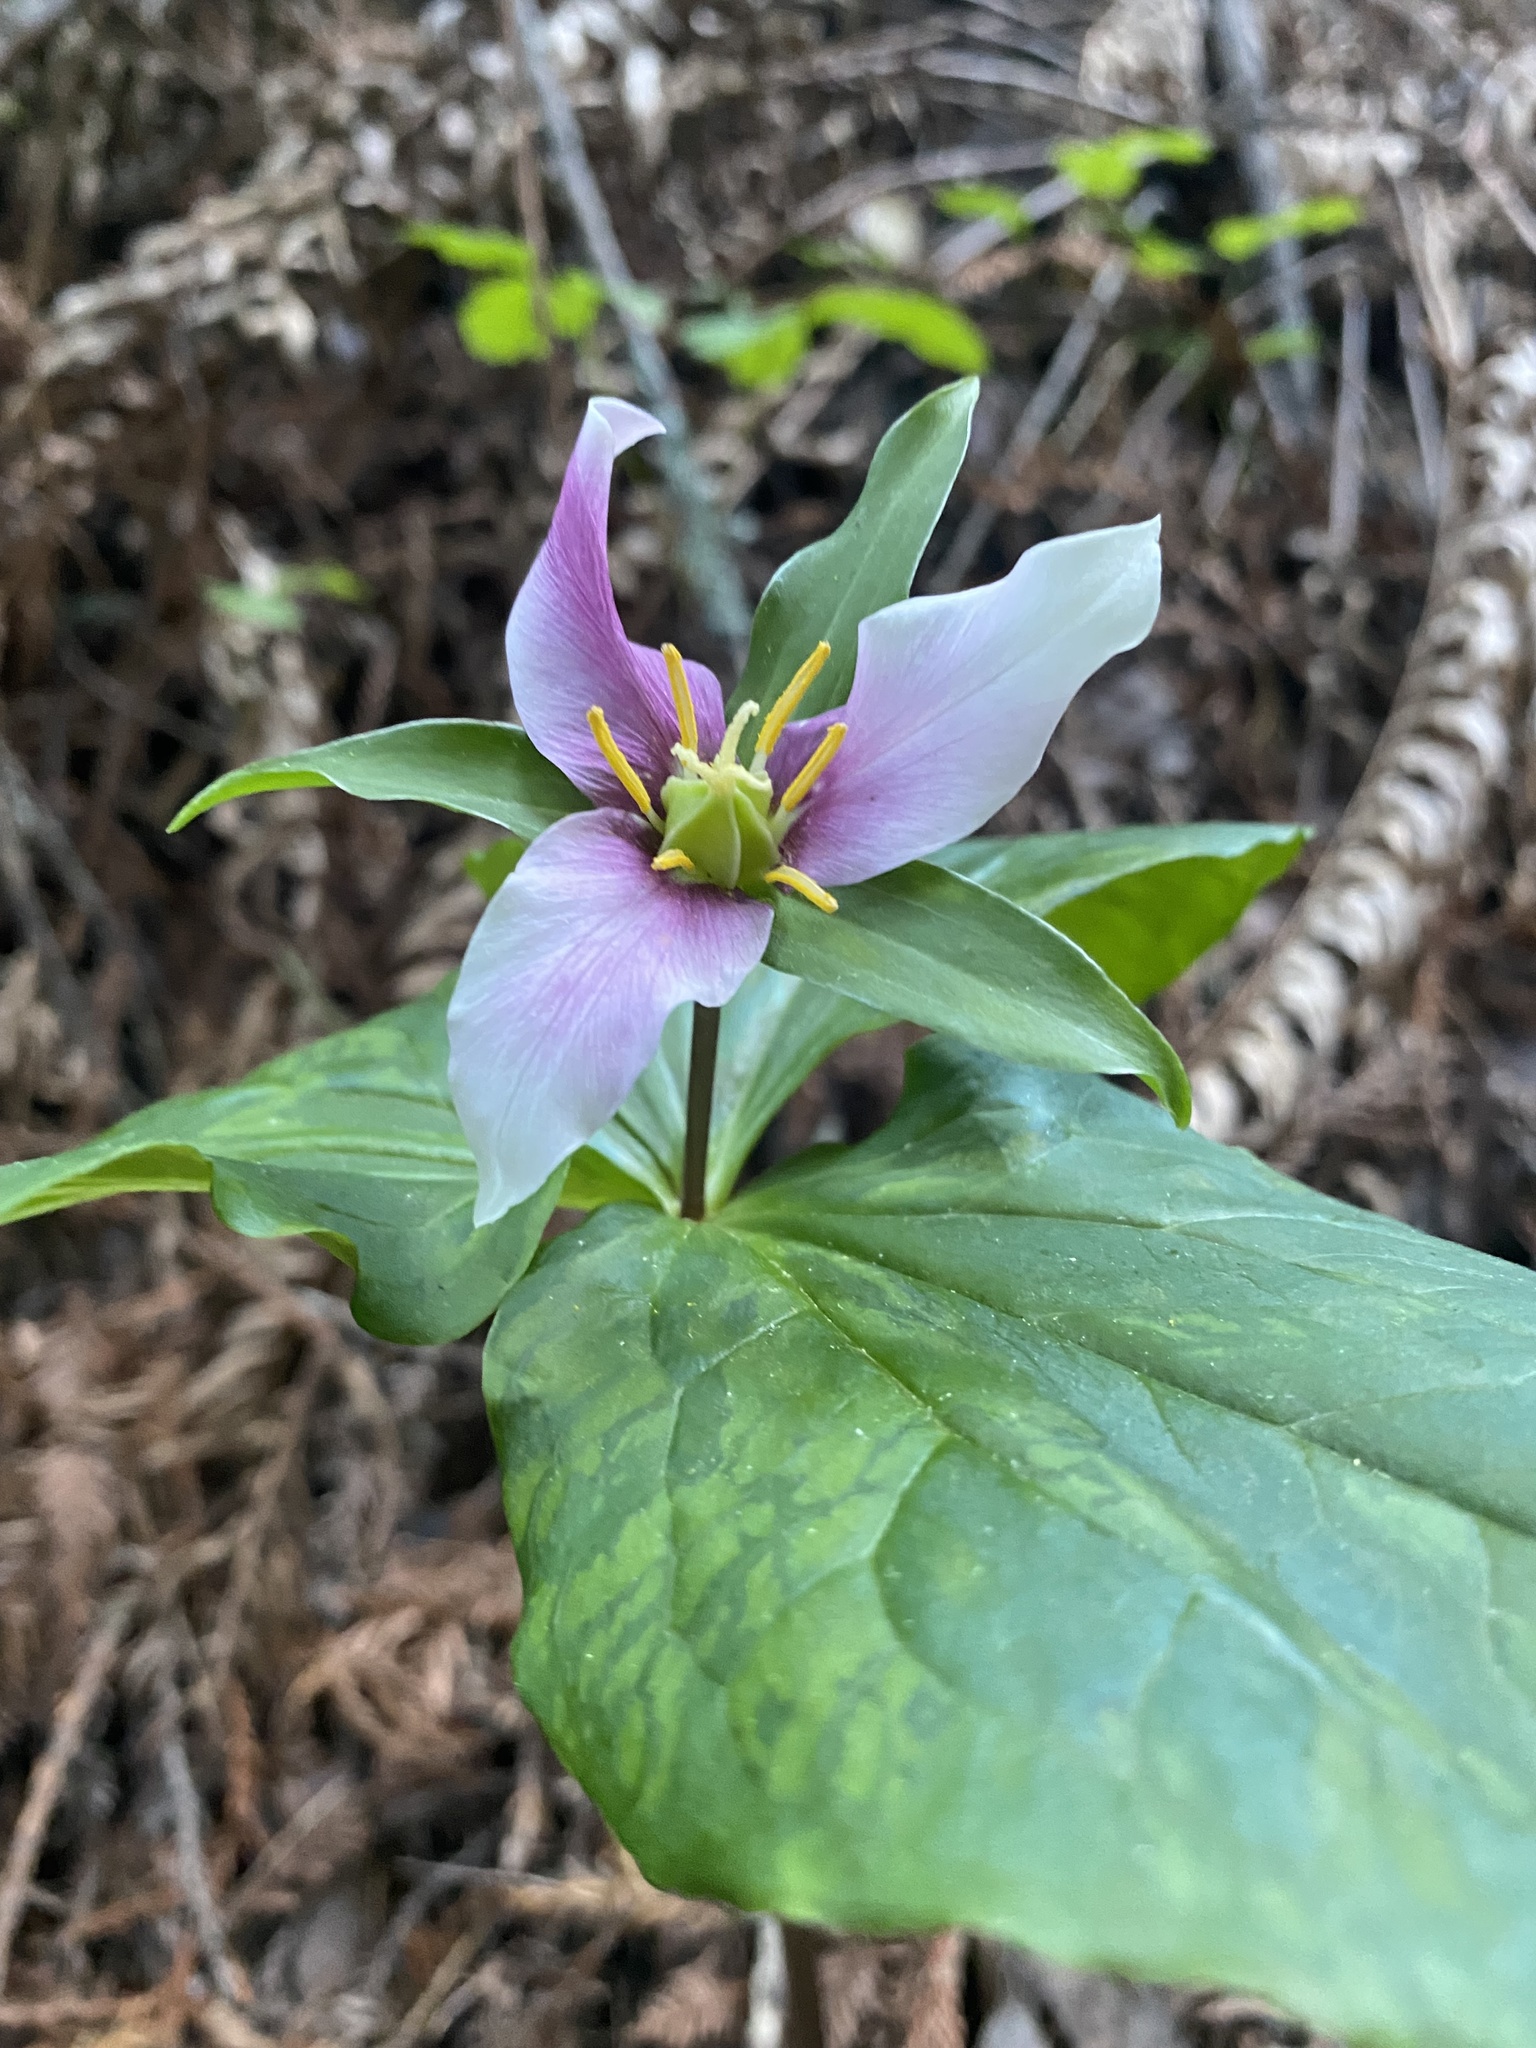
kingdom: Plantae
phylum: Tracheophyta
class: Liliopsida
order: Liliales
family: Melanthiaceae
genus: Trillium
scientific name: Trillium ovatum
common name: Pacific trillium
